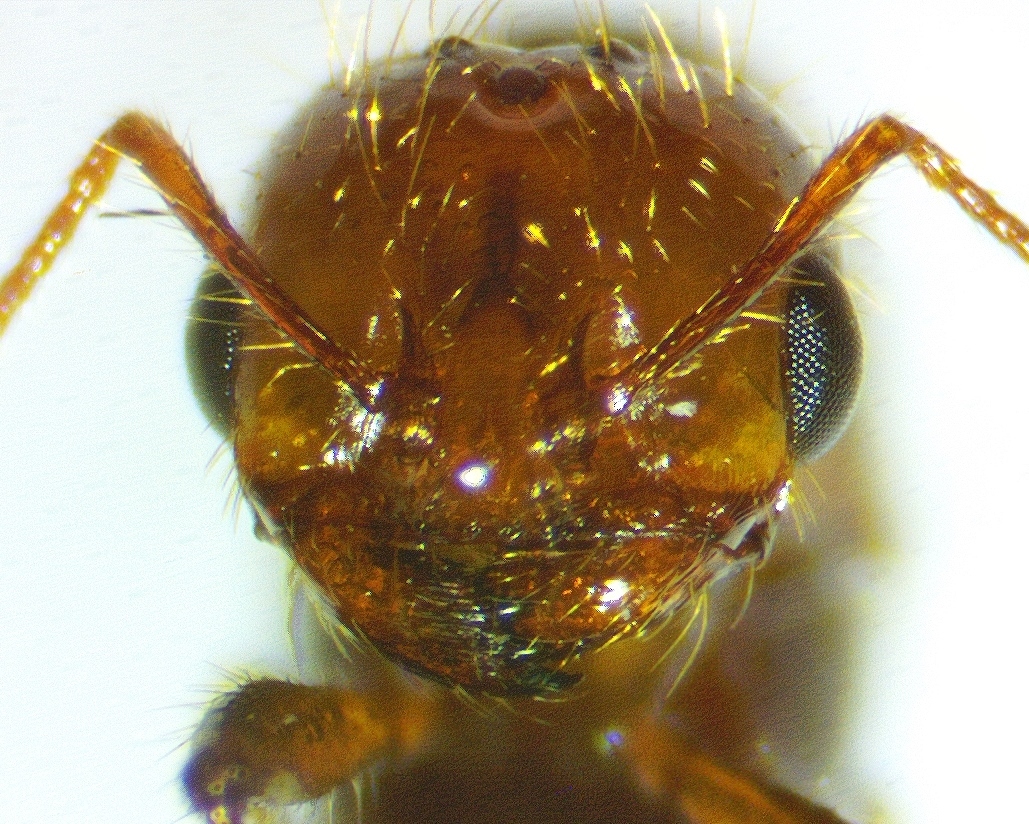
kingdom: Animalia
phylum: Arthropoda
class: Insecta
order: Hymenoptera
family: Formicidae
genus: Solenopsis
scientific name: Solenopsis invicta
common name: Red imported fire ant
